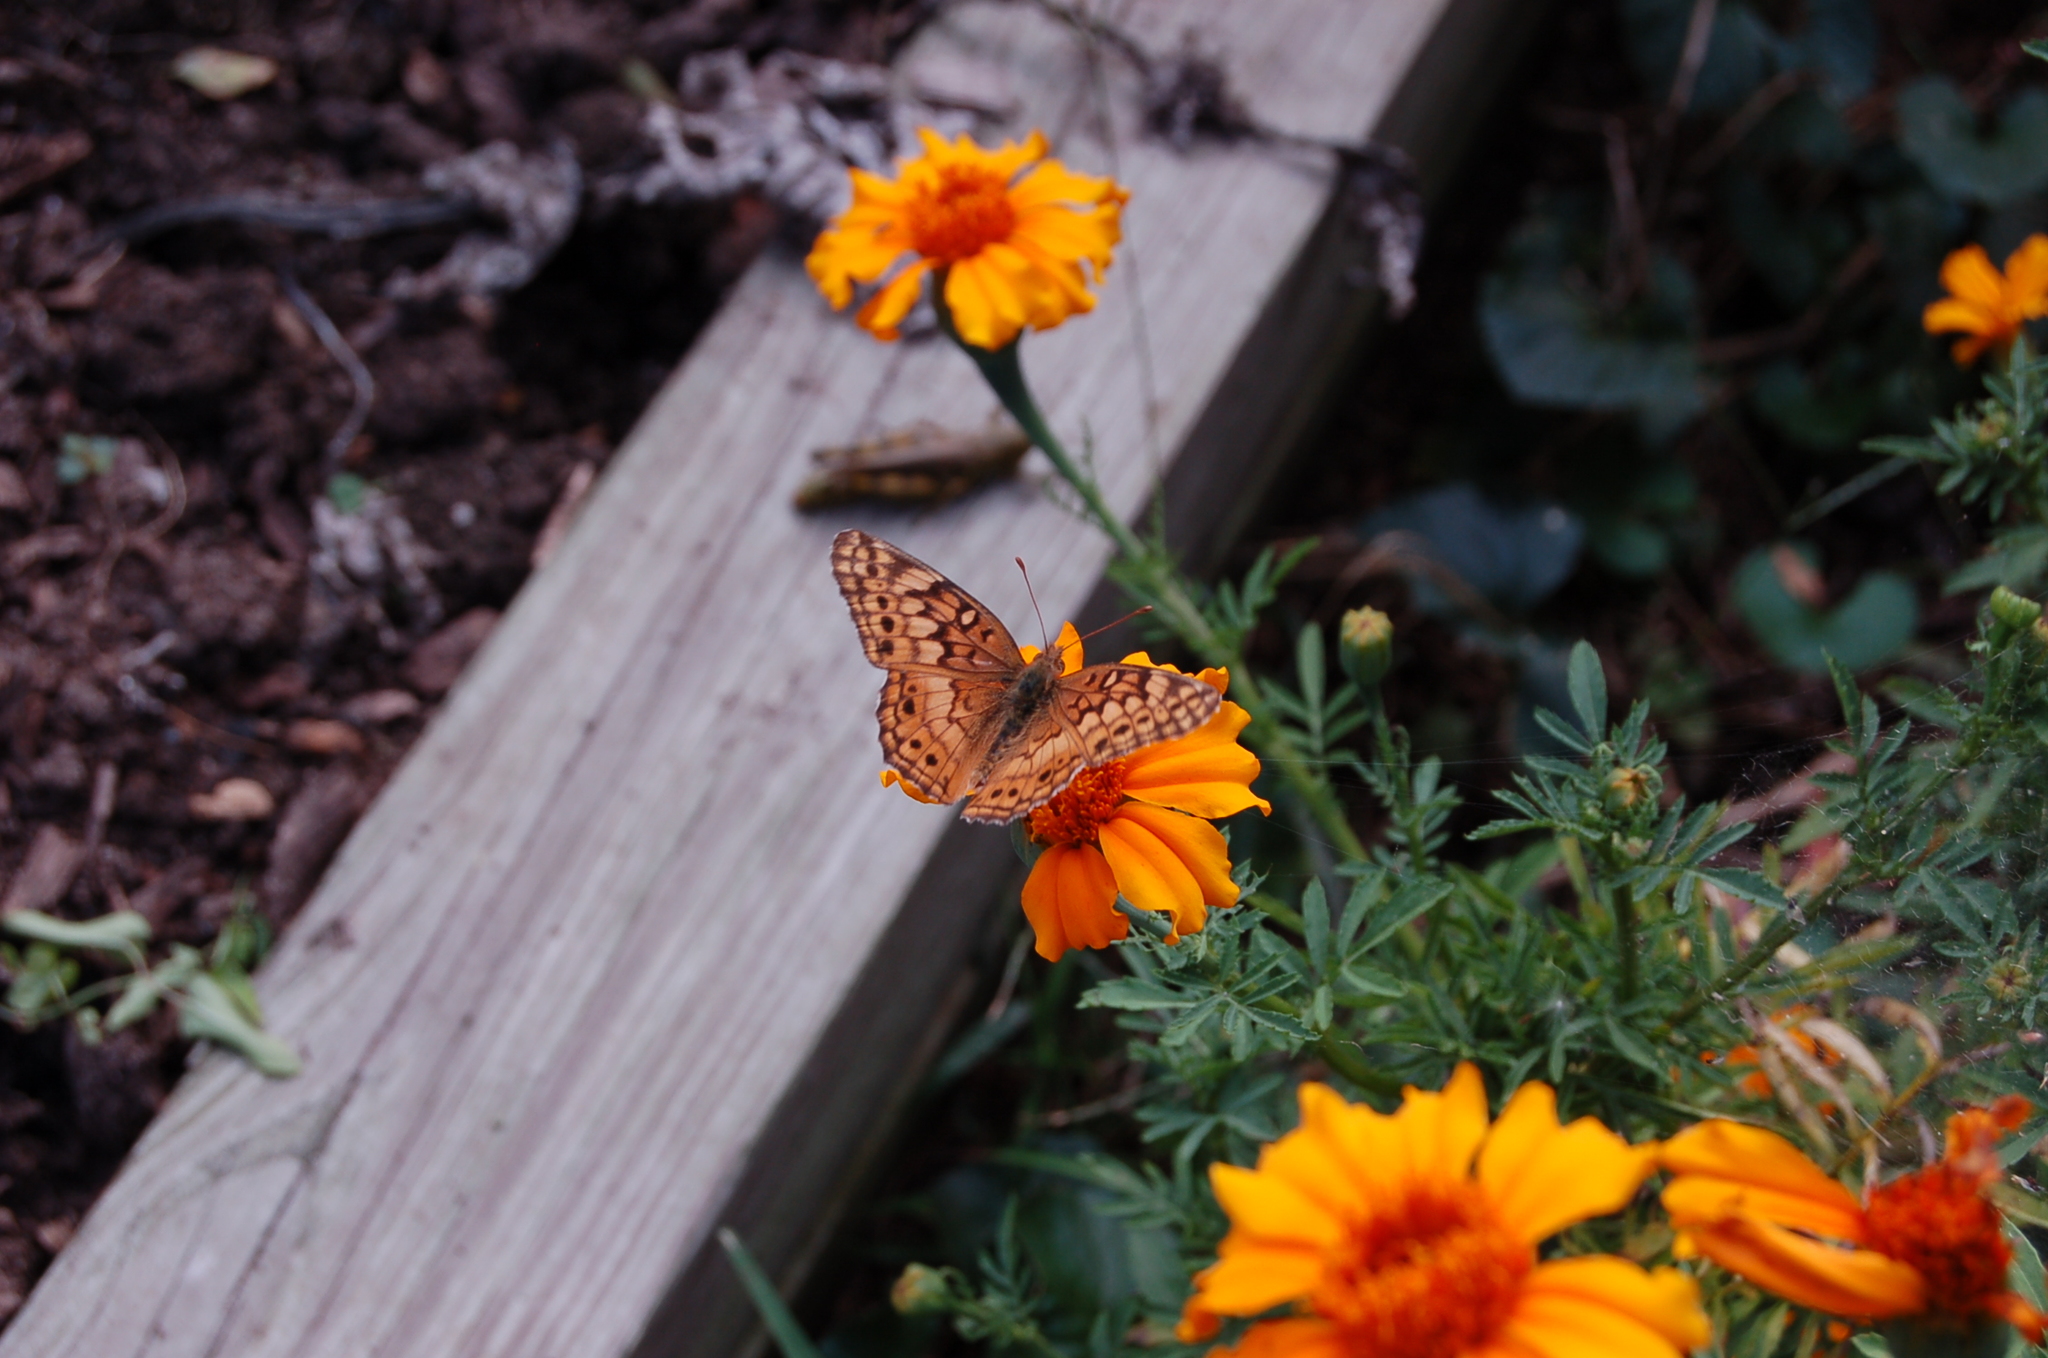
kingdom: Animalia
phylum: Arthropoda
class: Insecta
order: Lepidoptera
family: Nymphalidae
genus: Euptoieta
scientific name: Euptoieta claudia
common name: Variegated fritillary
